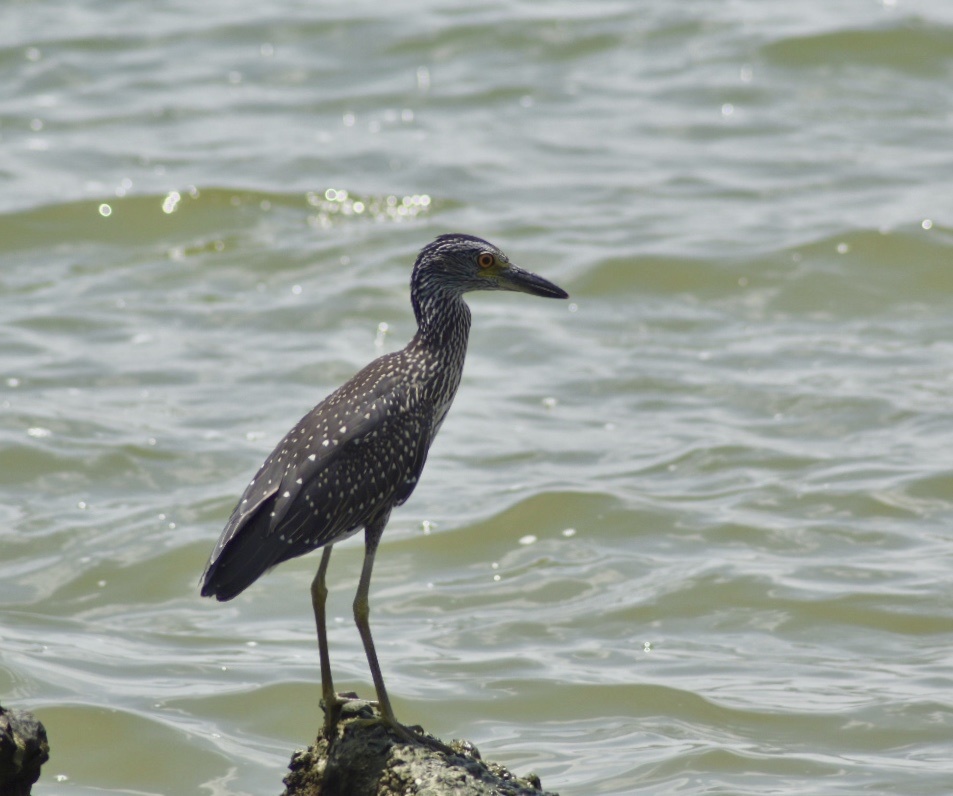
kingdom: Animalia
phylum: Chordata
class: Aves
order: Pelecaniformes
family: Ardeidae
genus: Nyctanassa
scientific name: Nyctanassa violacea
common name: Yellow-crowned night heron
